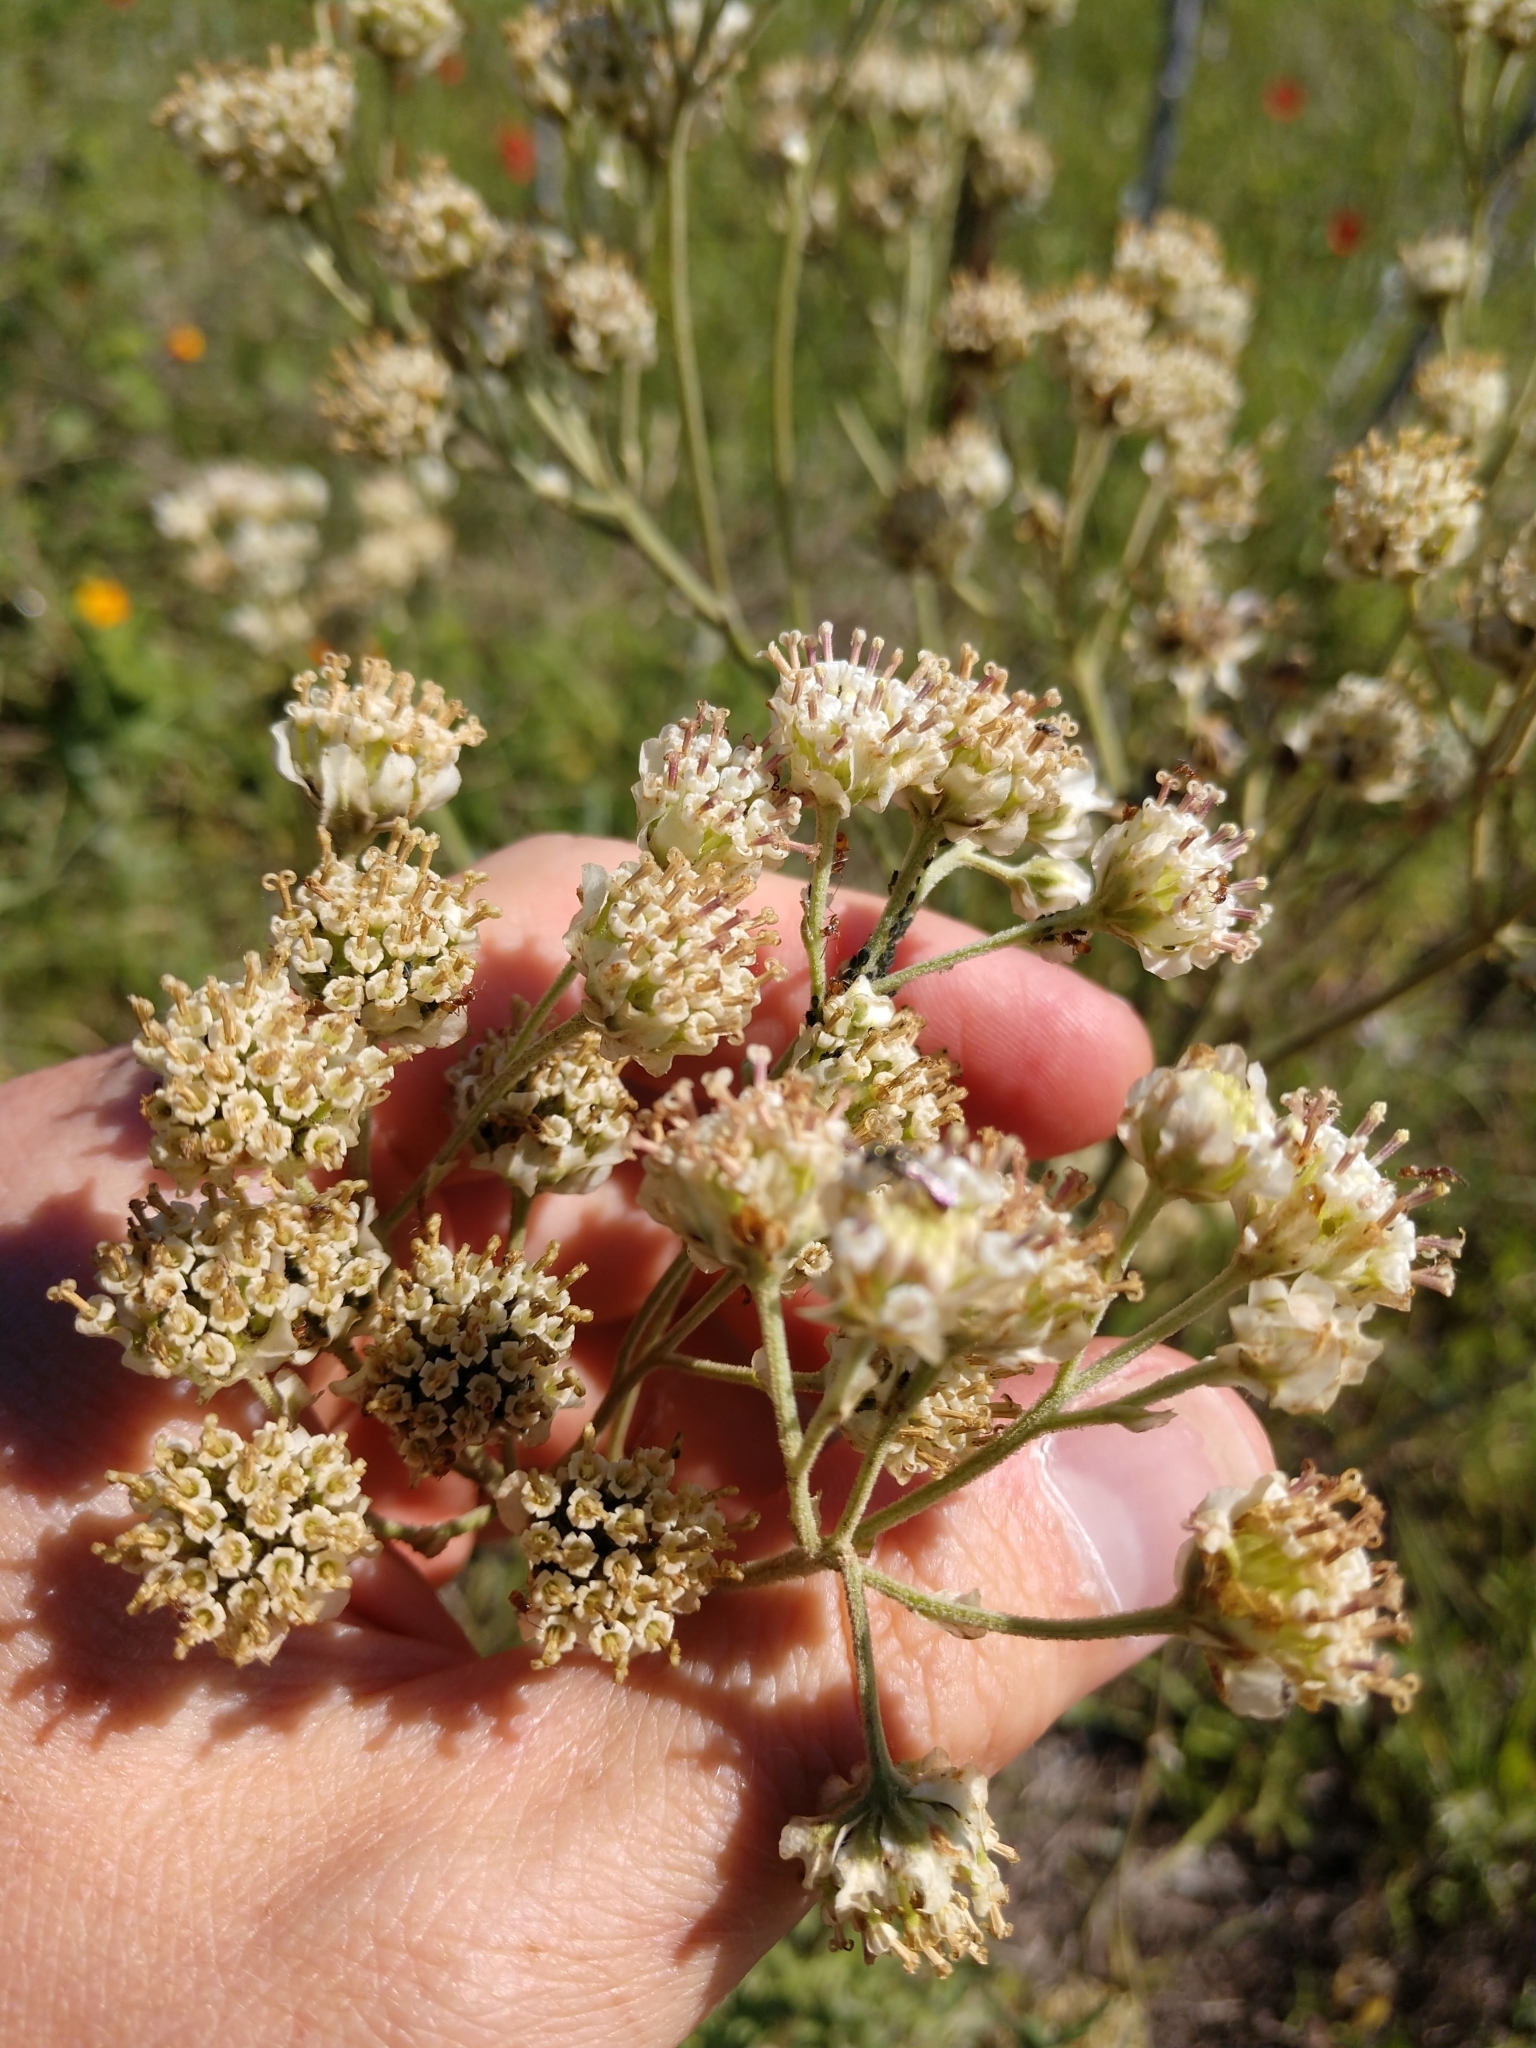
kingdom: Plantae
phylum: Tracheophyta
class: Magnoliopsida
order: Asterales
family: Asteraceae
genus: Hymenopappus
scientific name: Hymenopappus carrizoanus
